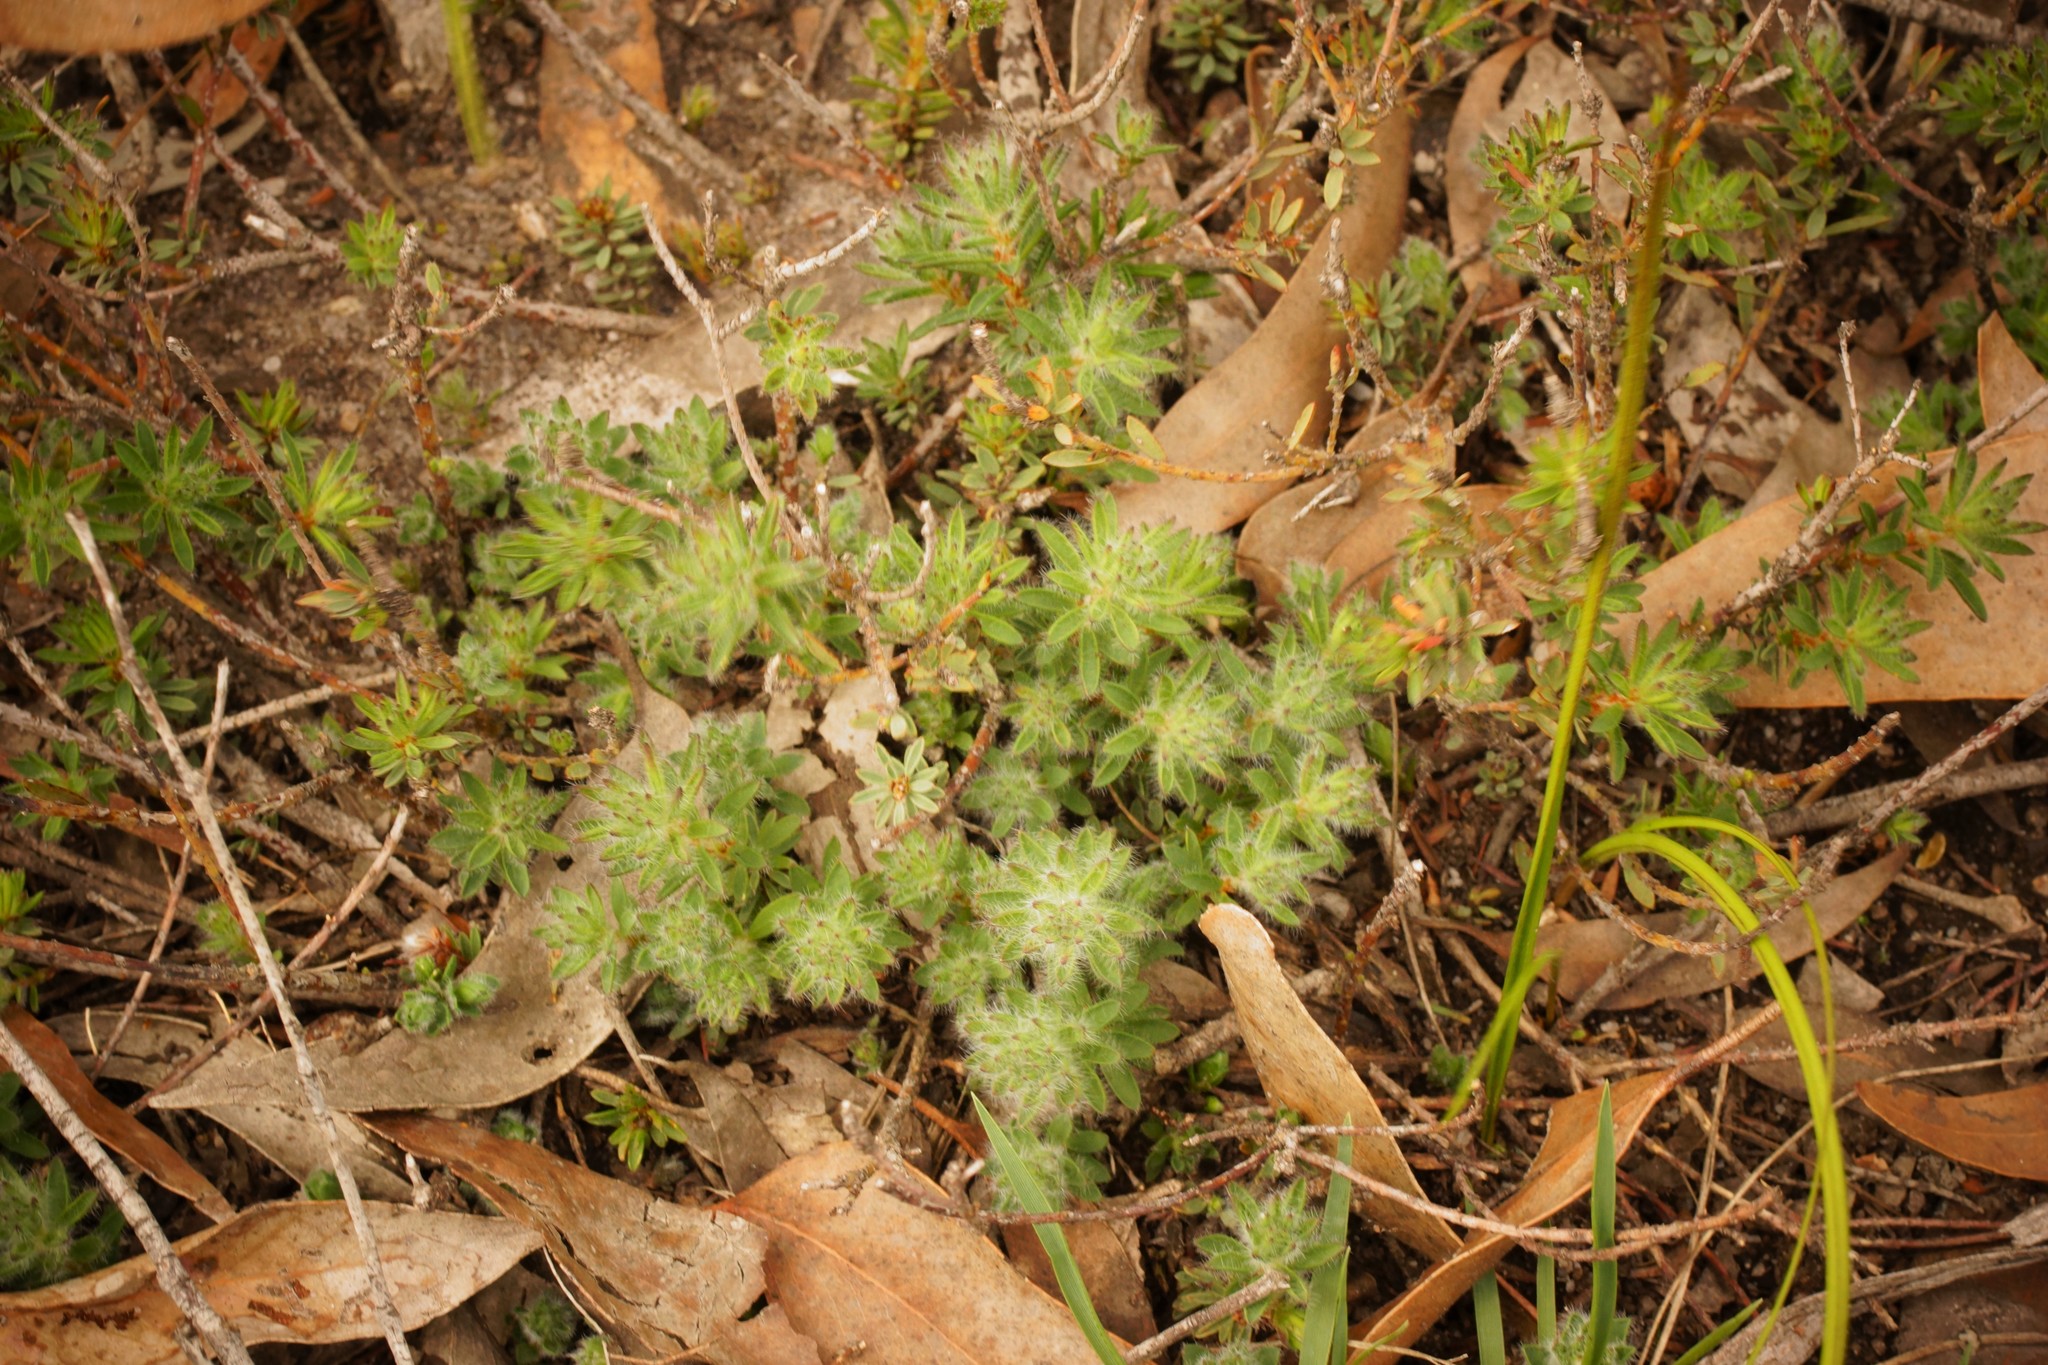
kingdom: Plantae
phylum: Tracheophyta
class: Magnoliopsida
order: Fabales
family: Fabaceae
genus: Pultenaea
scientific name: Pultenaea humilis
